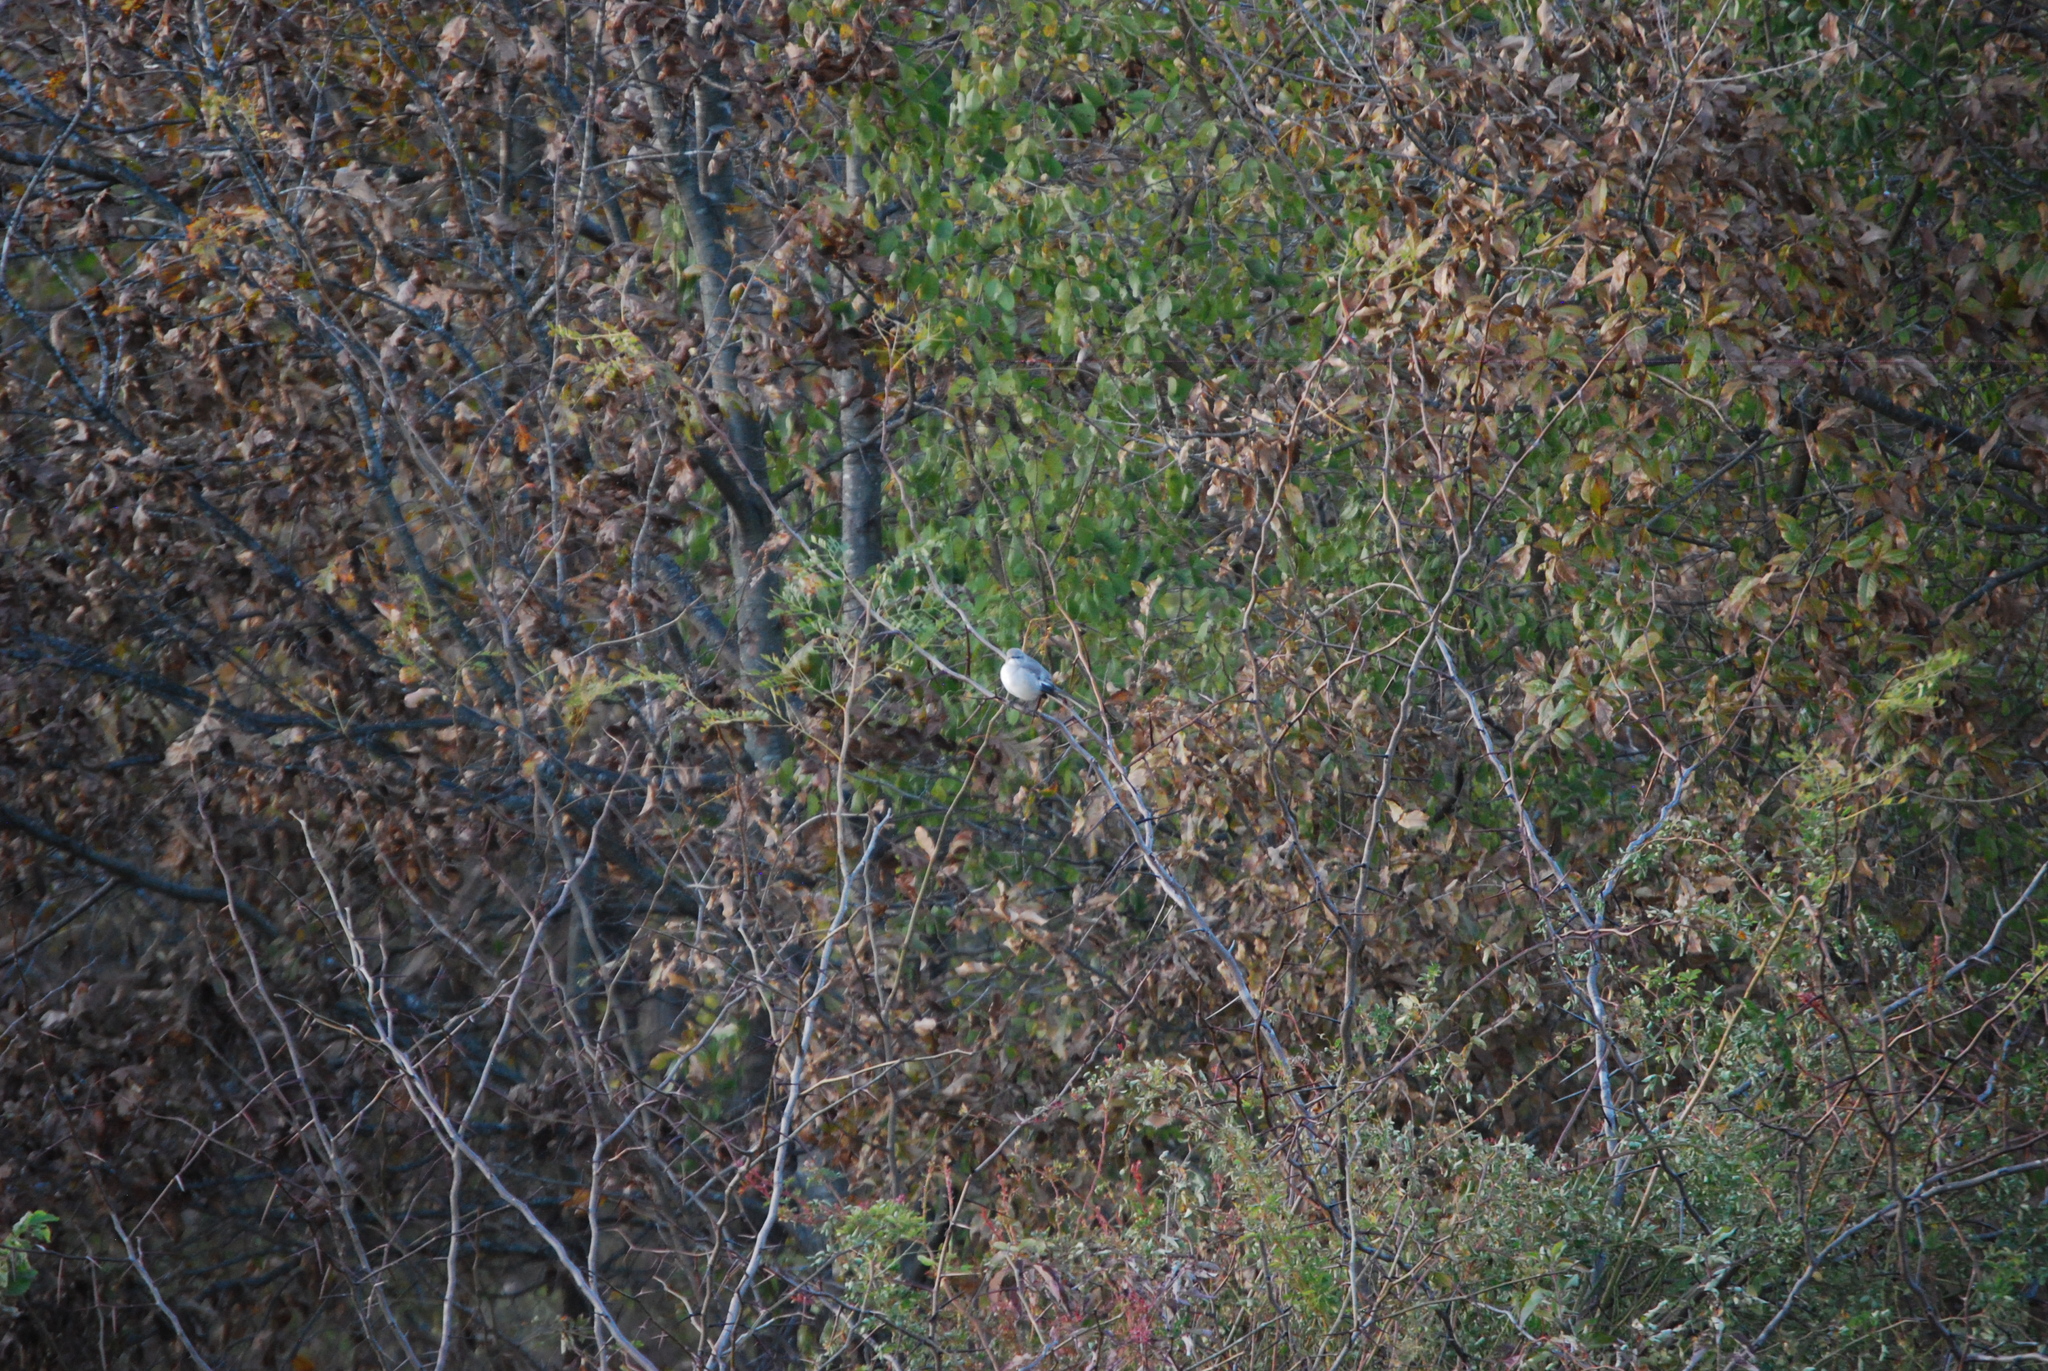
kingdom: Animalia
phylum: Chordata
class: Aves
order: Passeriformes
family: Mimidae
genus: Mimus
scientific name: Mimus polyglottos
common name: Northern mockingbird
